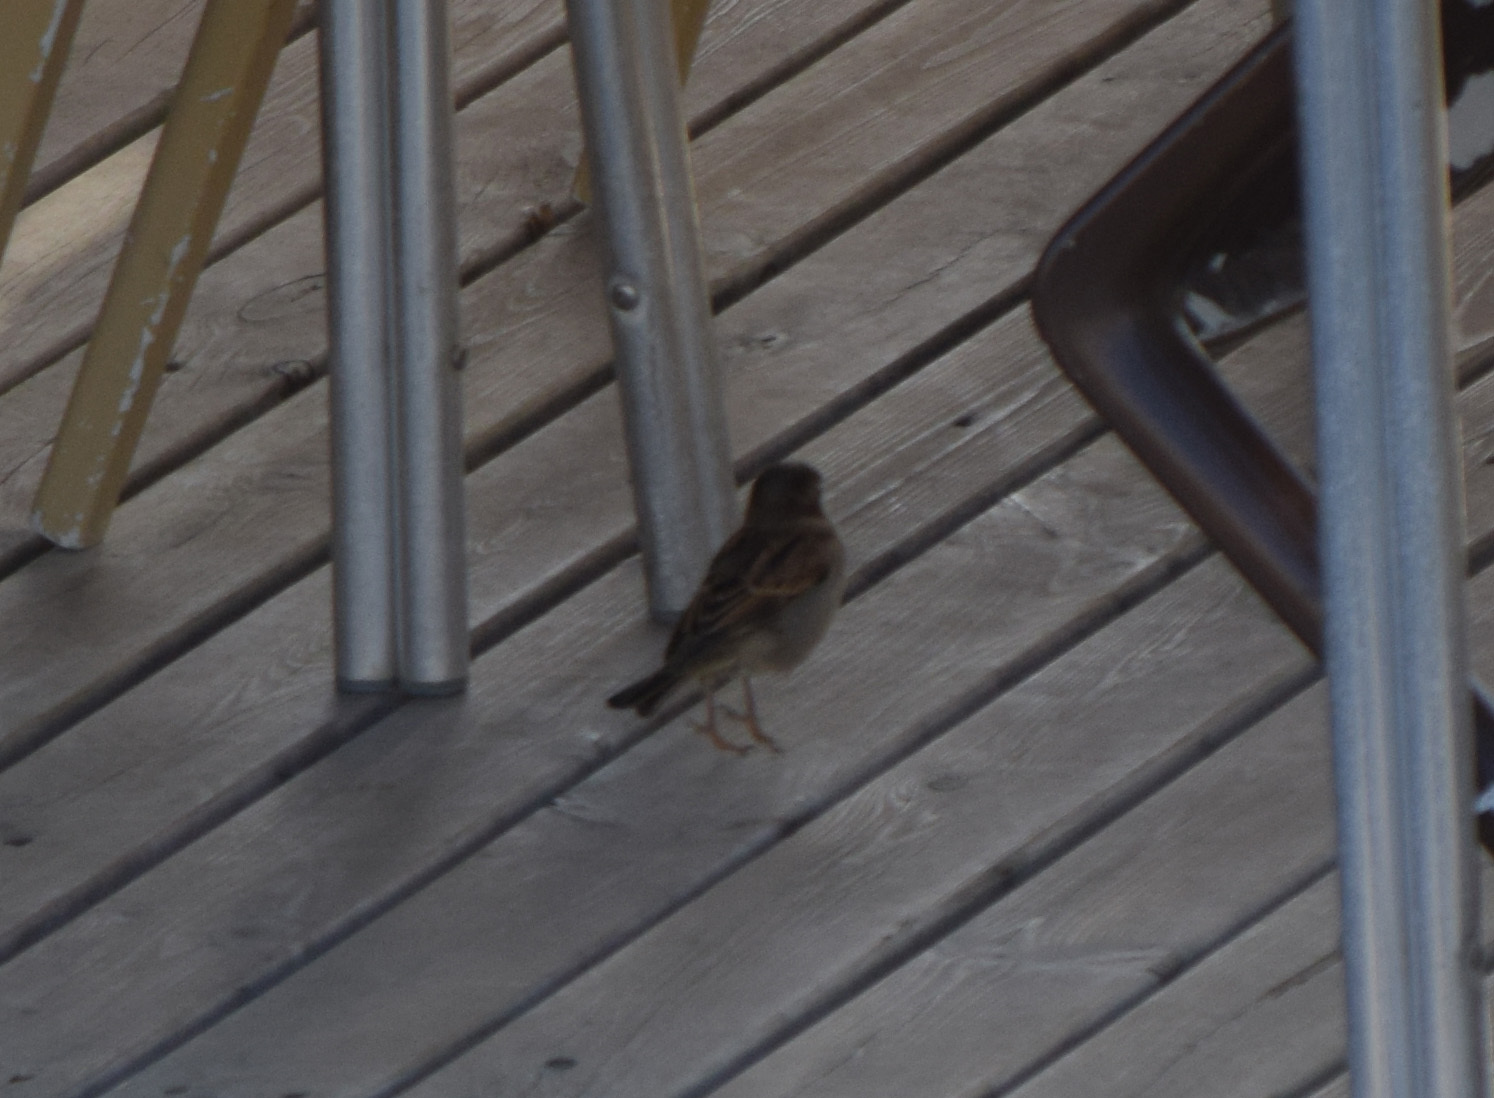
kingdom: Animalia
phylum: Chordata
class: Aves
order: Passeriformes
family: Passeridae
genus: Passer
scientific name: Passer domesticus
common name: House sparrow
